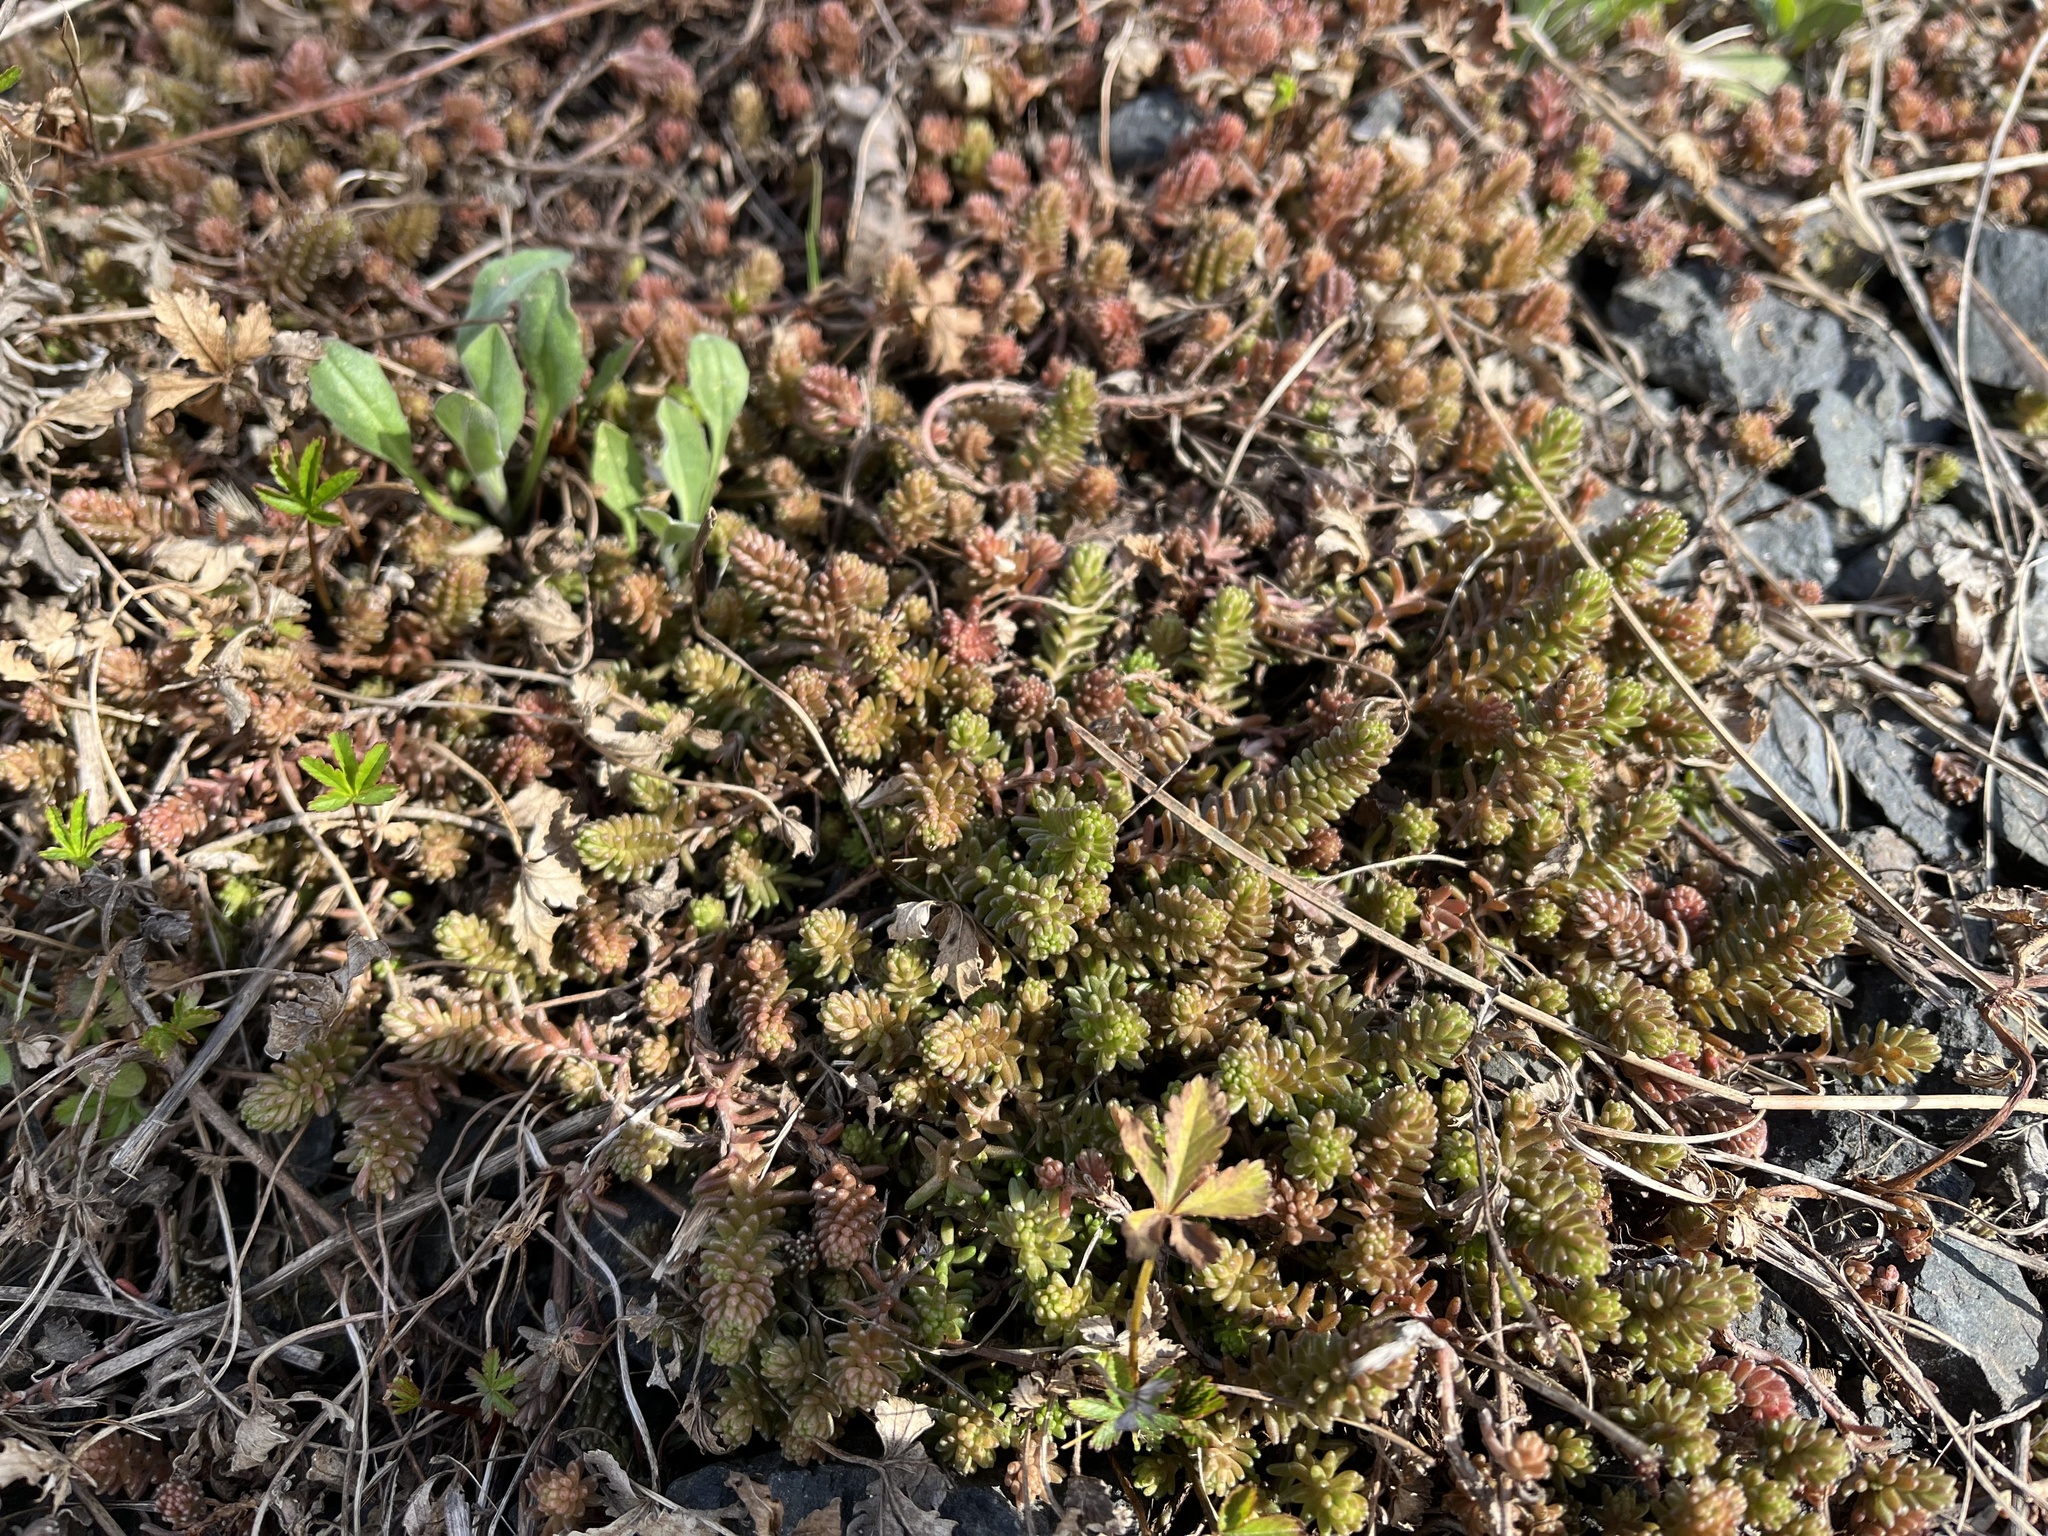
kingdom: Plantae
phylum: Tracheophyta
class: Magnoliopsida
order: Saxifragales
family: Crassulaceae
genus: Sedum
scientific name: Sedum sexangulare
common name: Tasteless stonecrop
